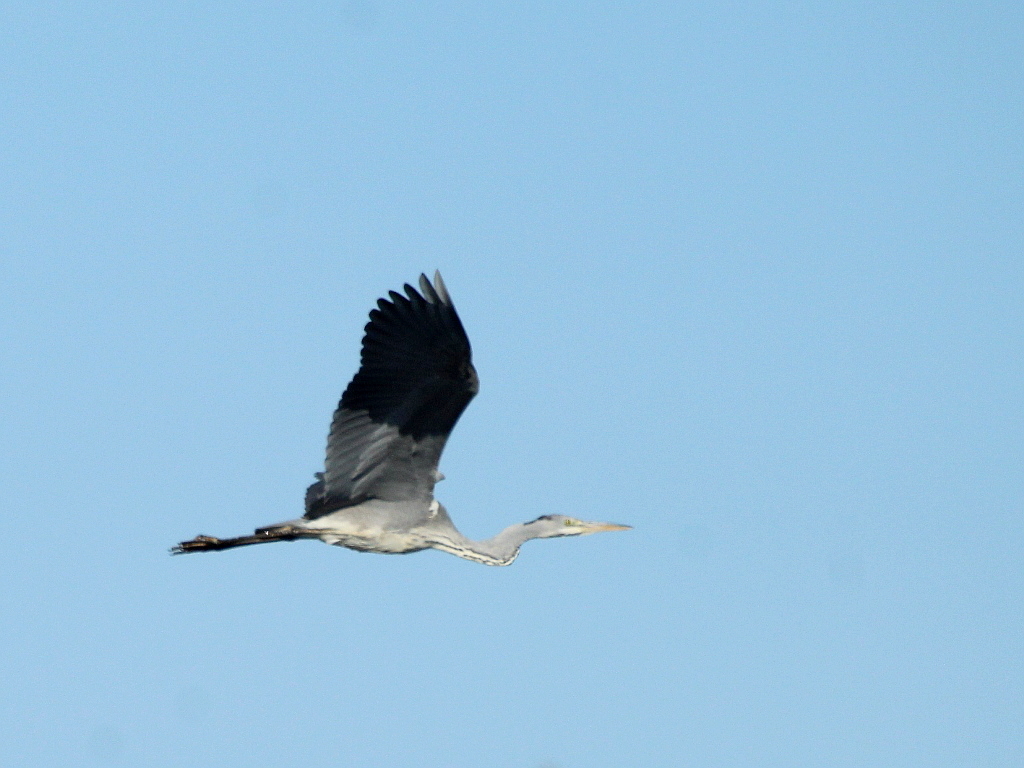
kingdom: Animalia
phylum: Chordata
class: Aves
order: Pelecaniformes
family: Ardeidae
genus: Ardea
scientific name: Ardea cinerea
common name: Grey heron
